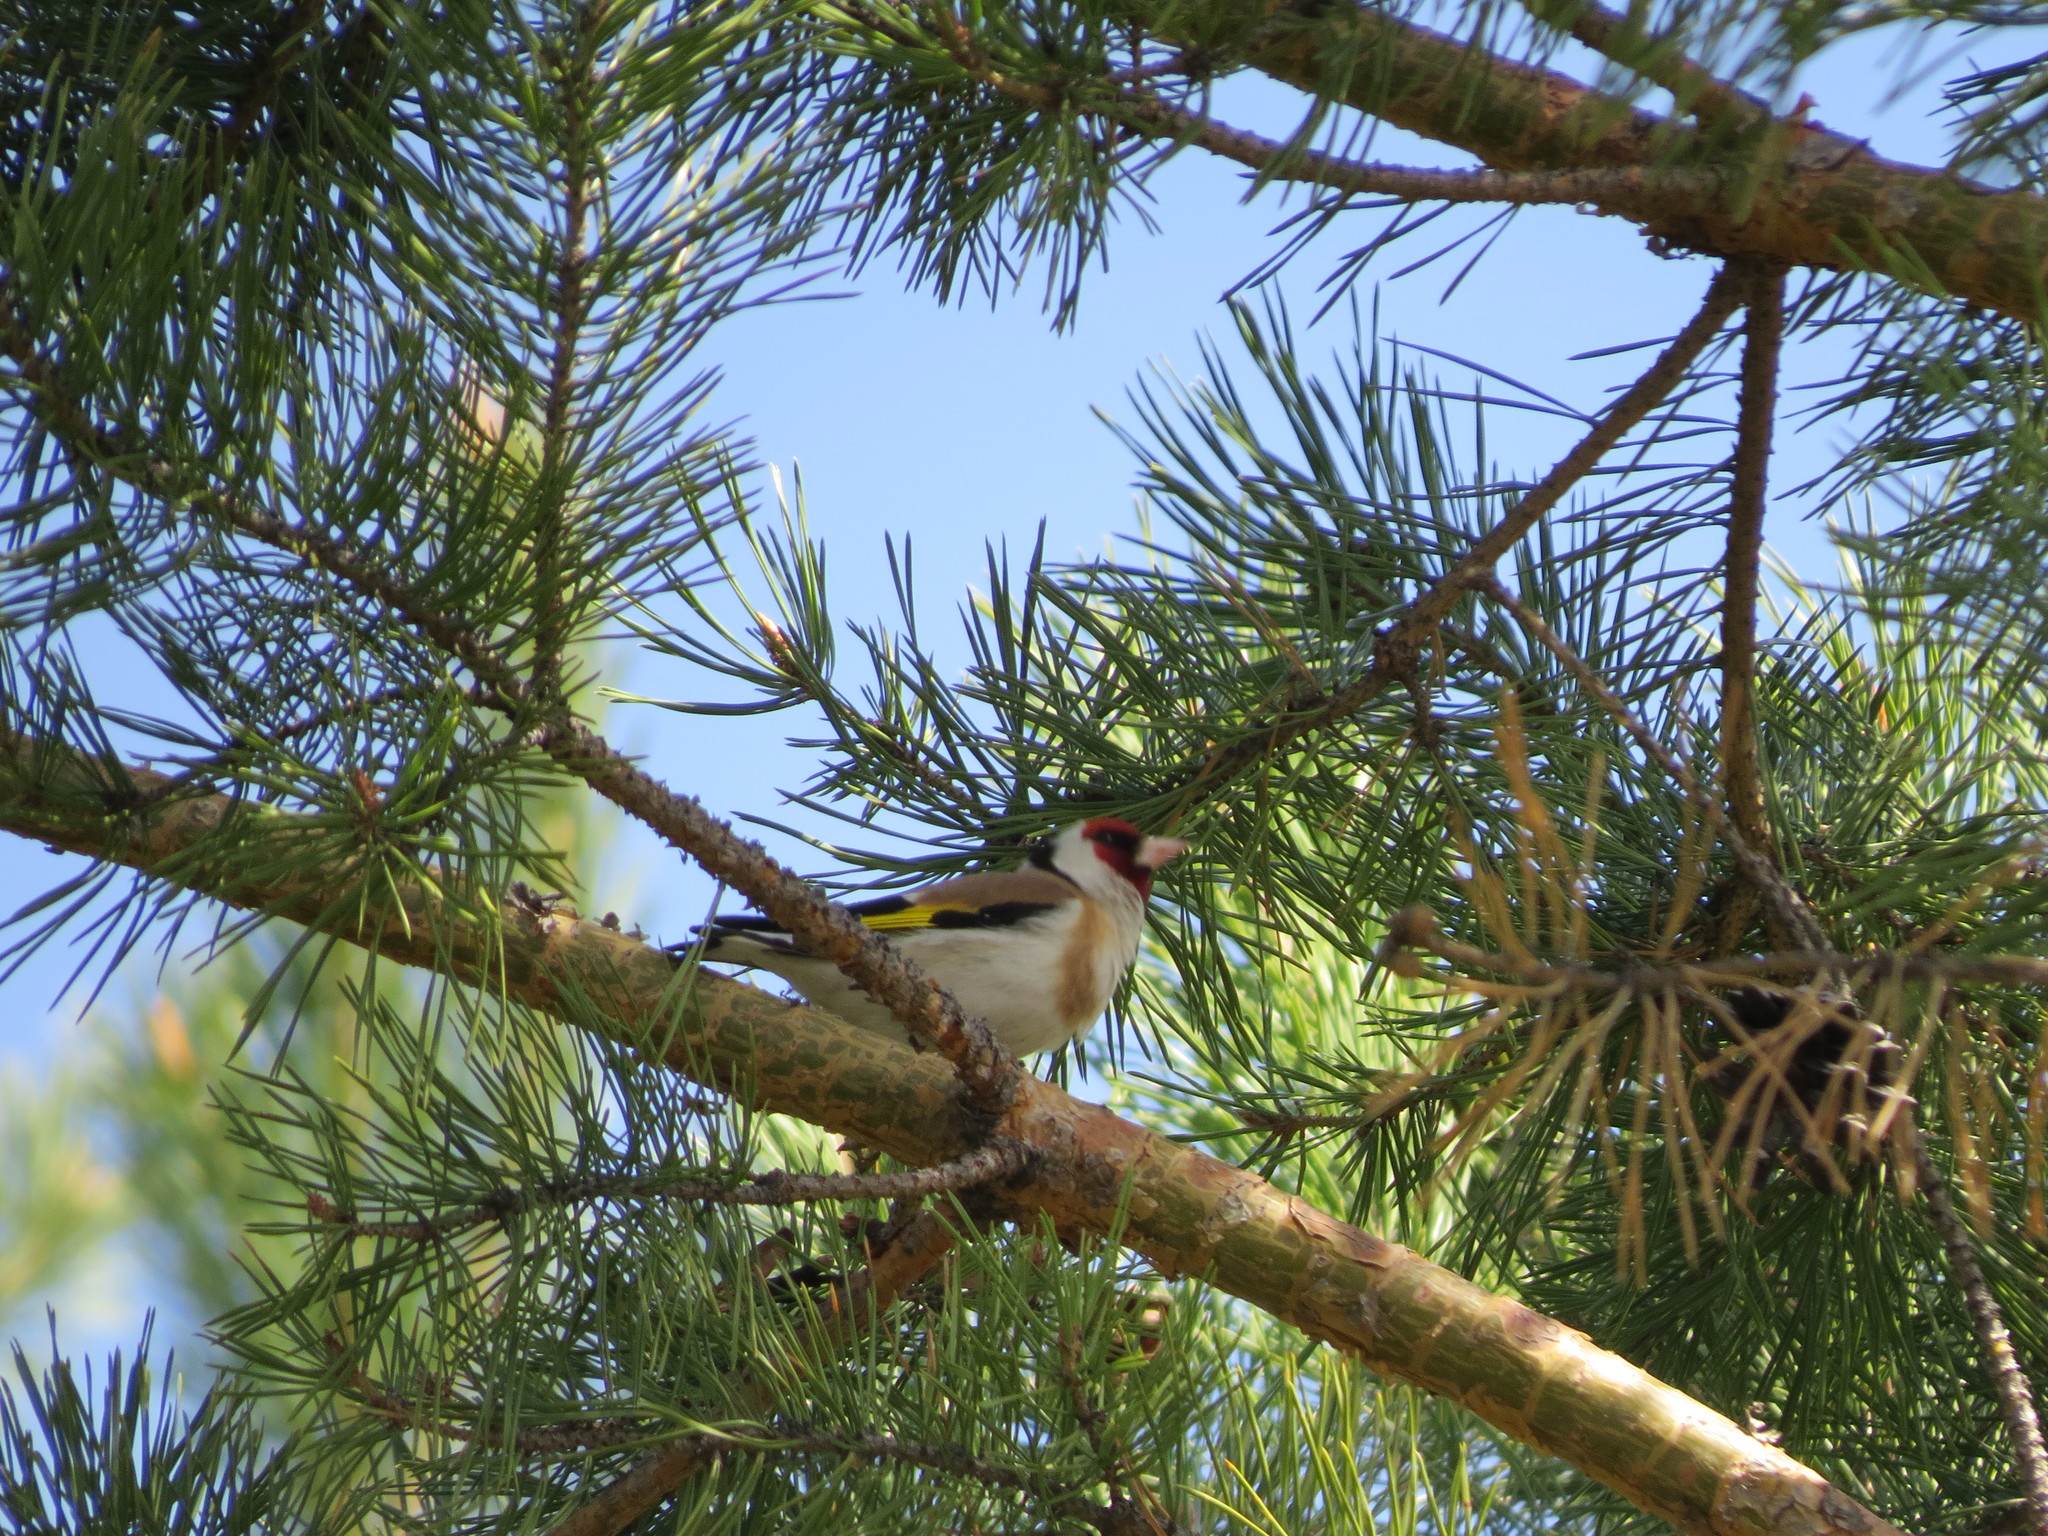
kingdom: Animalia
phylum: Chordata
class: Aves
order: Passeriformes
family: Fringillidae
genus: Carduelis
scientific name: Carduelis carduelis
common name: European goldfinch
